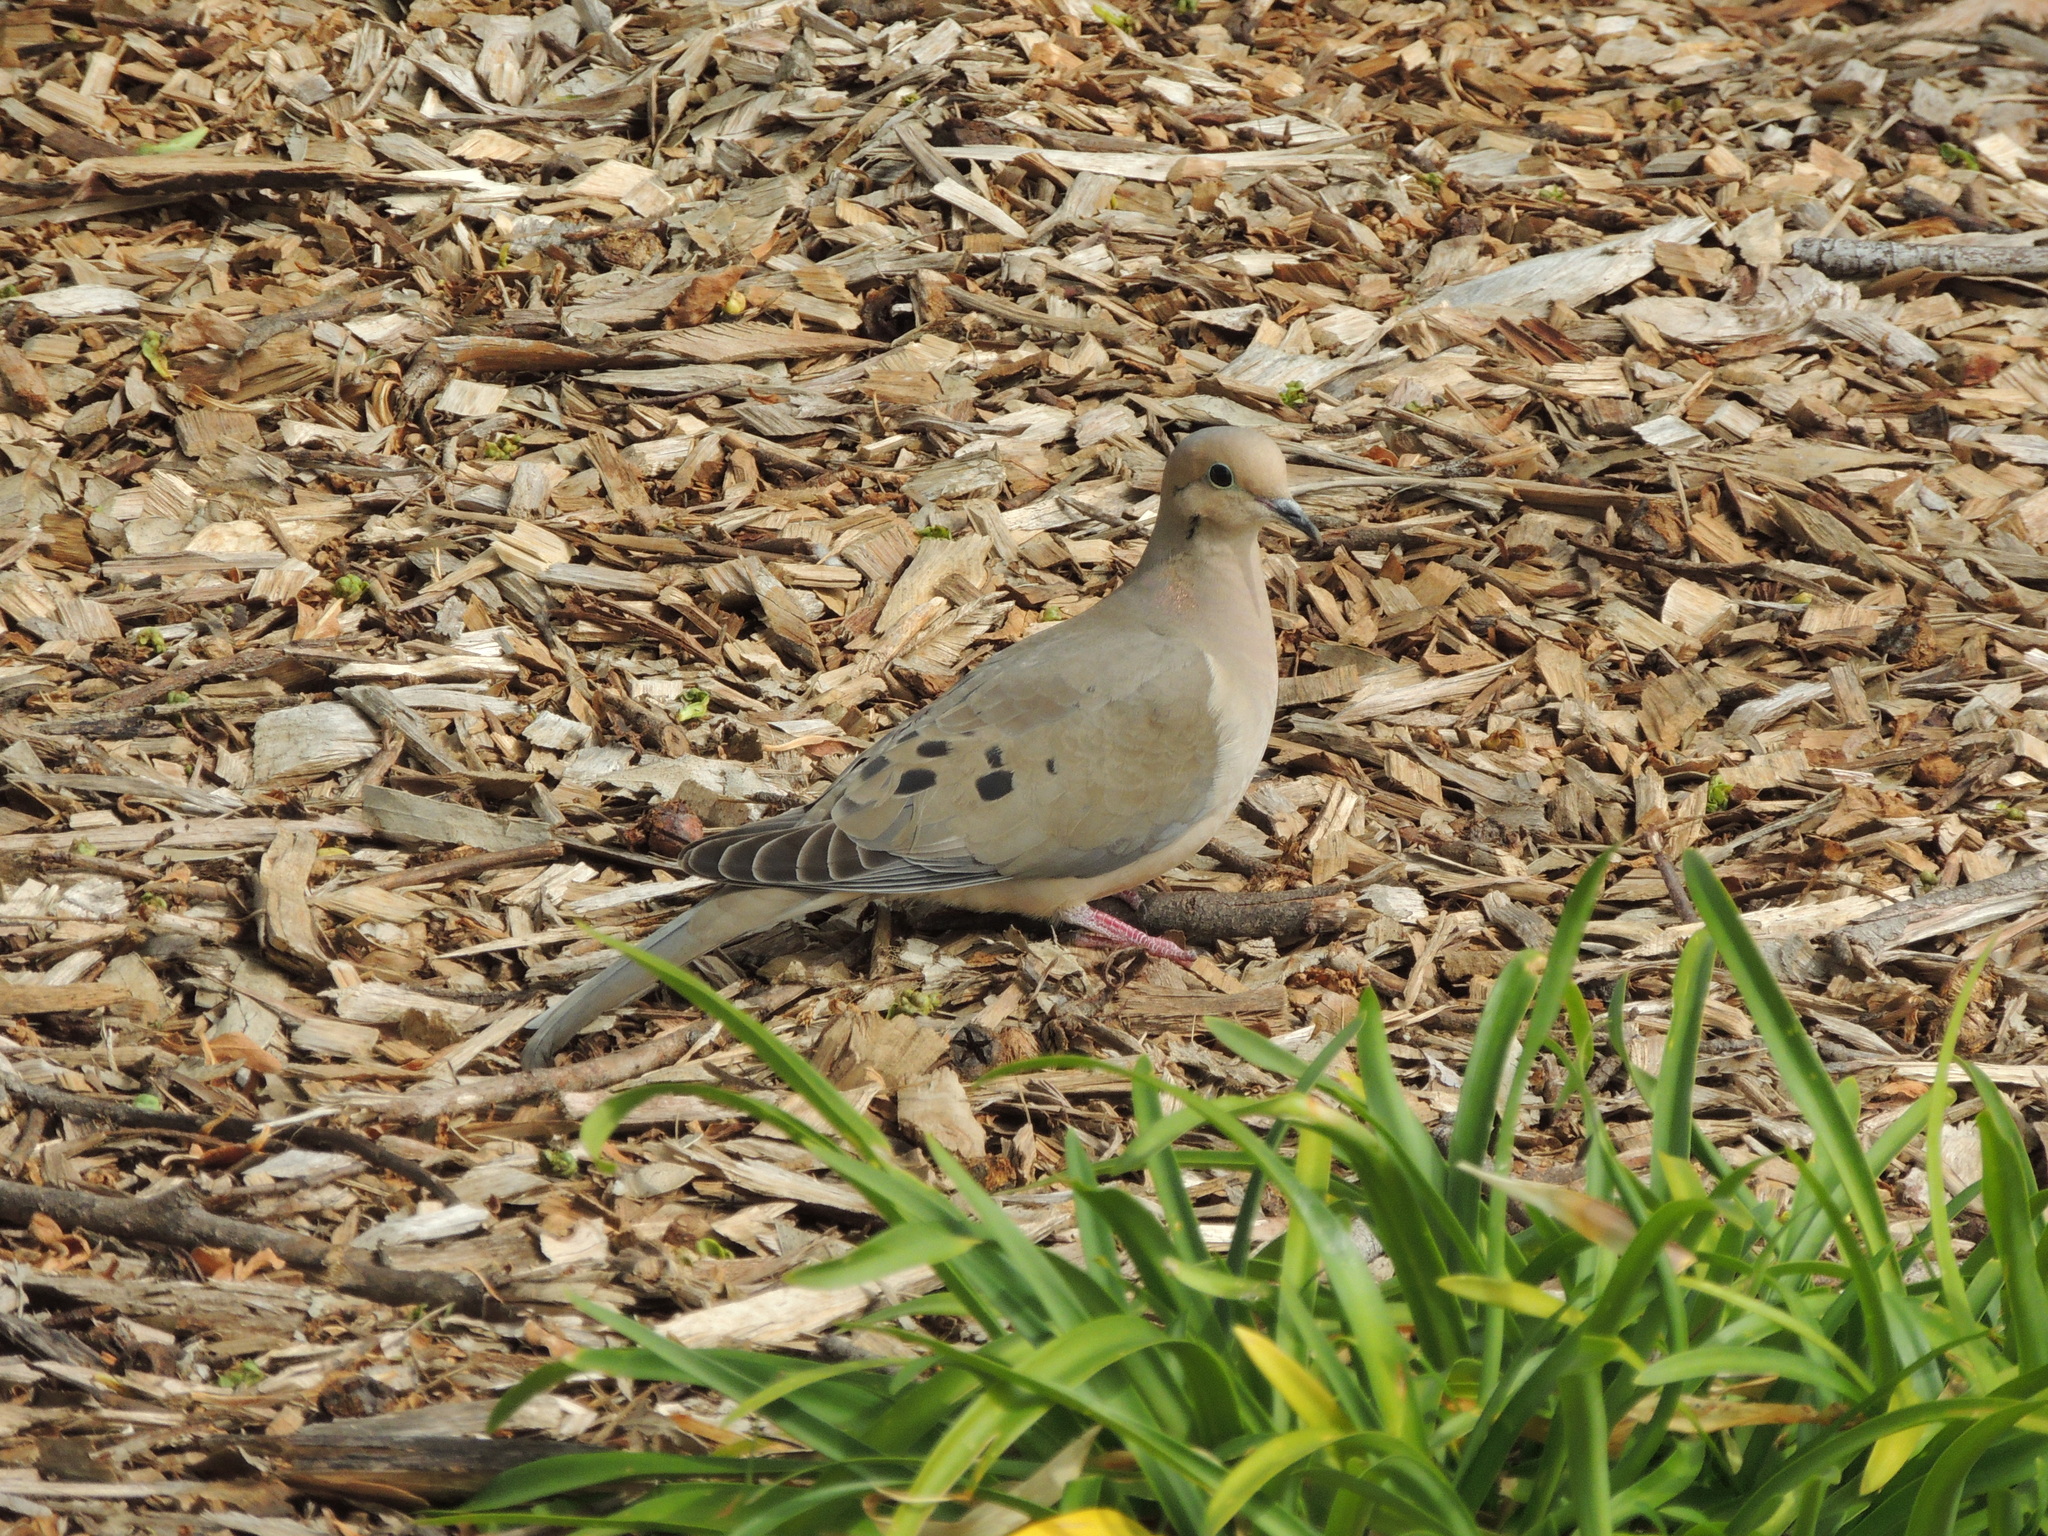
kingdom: Animalia
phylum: Chordata
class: Aves
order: Columbiformes
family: Columbidae
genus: Zenaida
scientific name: Zenaida macroura
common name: Mourning dove
